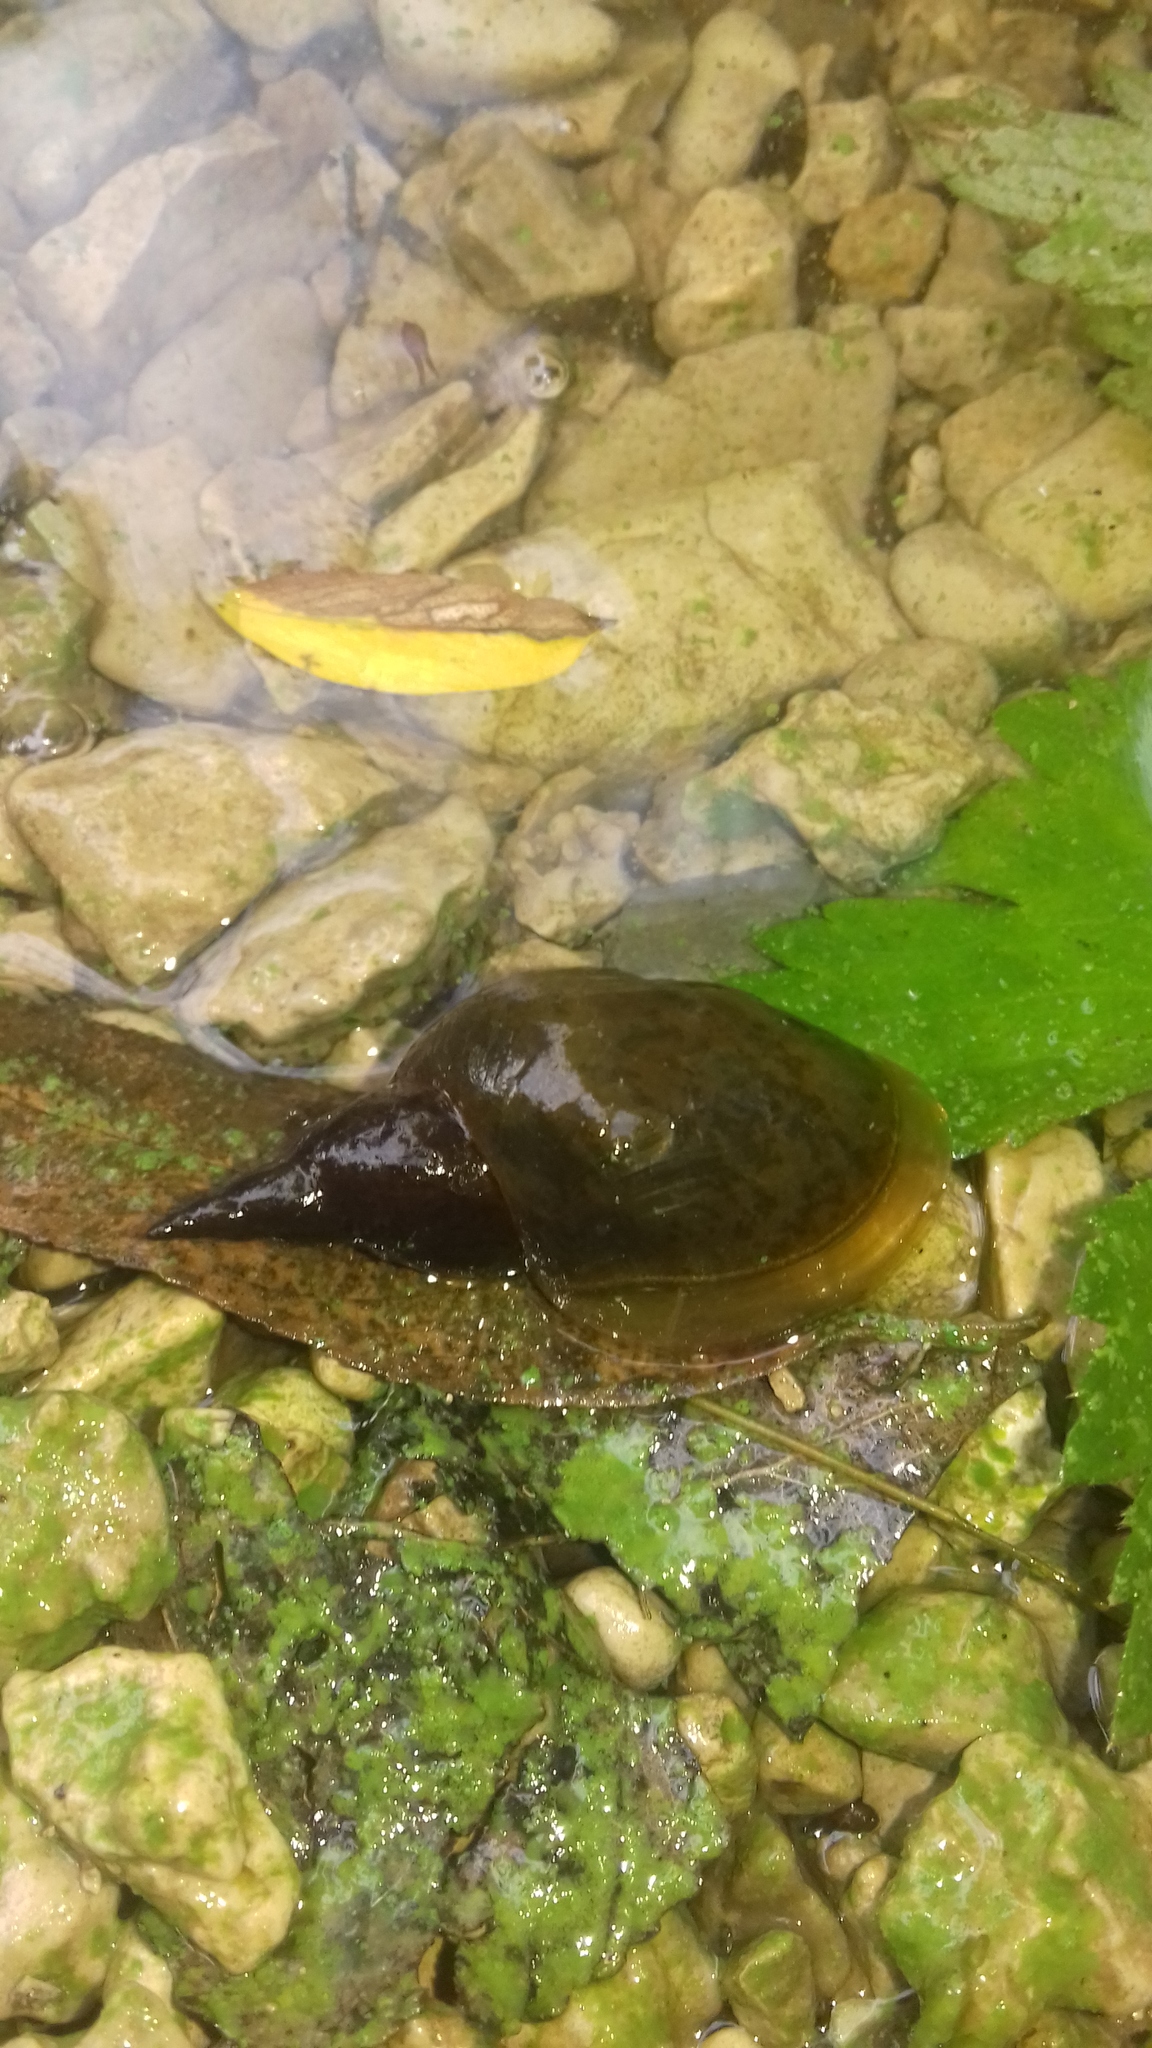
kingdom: Animalia
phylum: Mollusca
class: Gastropoda
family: Lymnaeidae
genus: Lymnaea
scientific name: Lymnaea stagnalis
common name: Great pond snail
